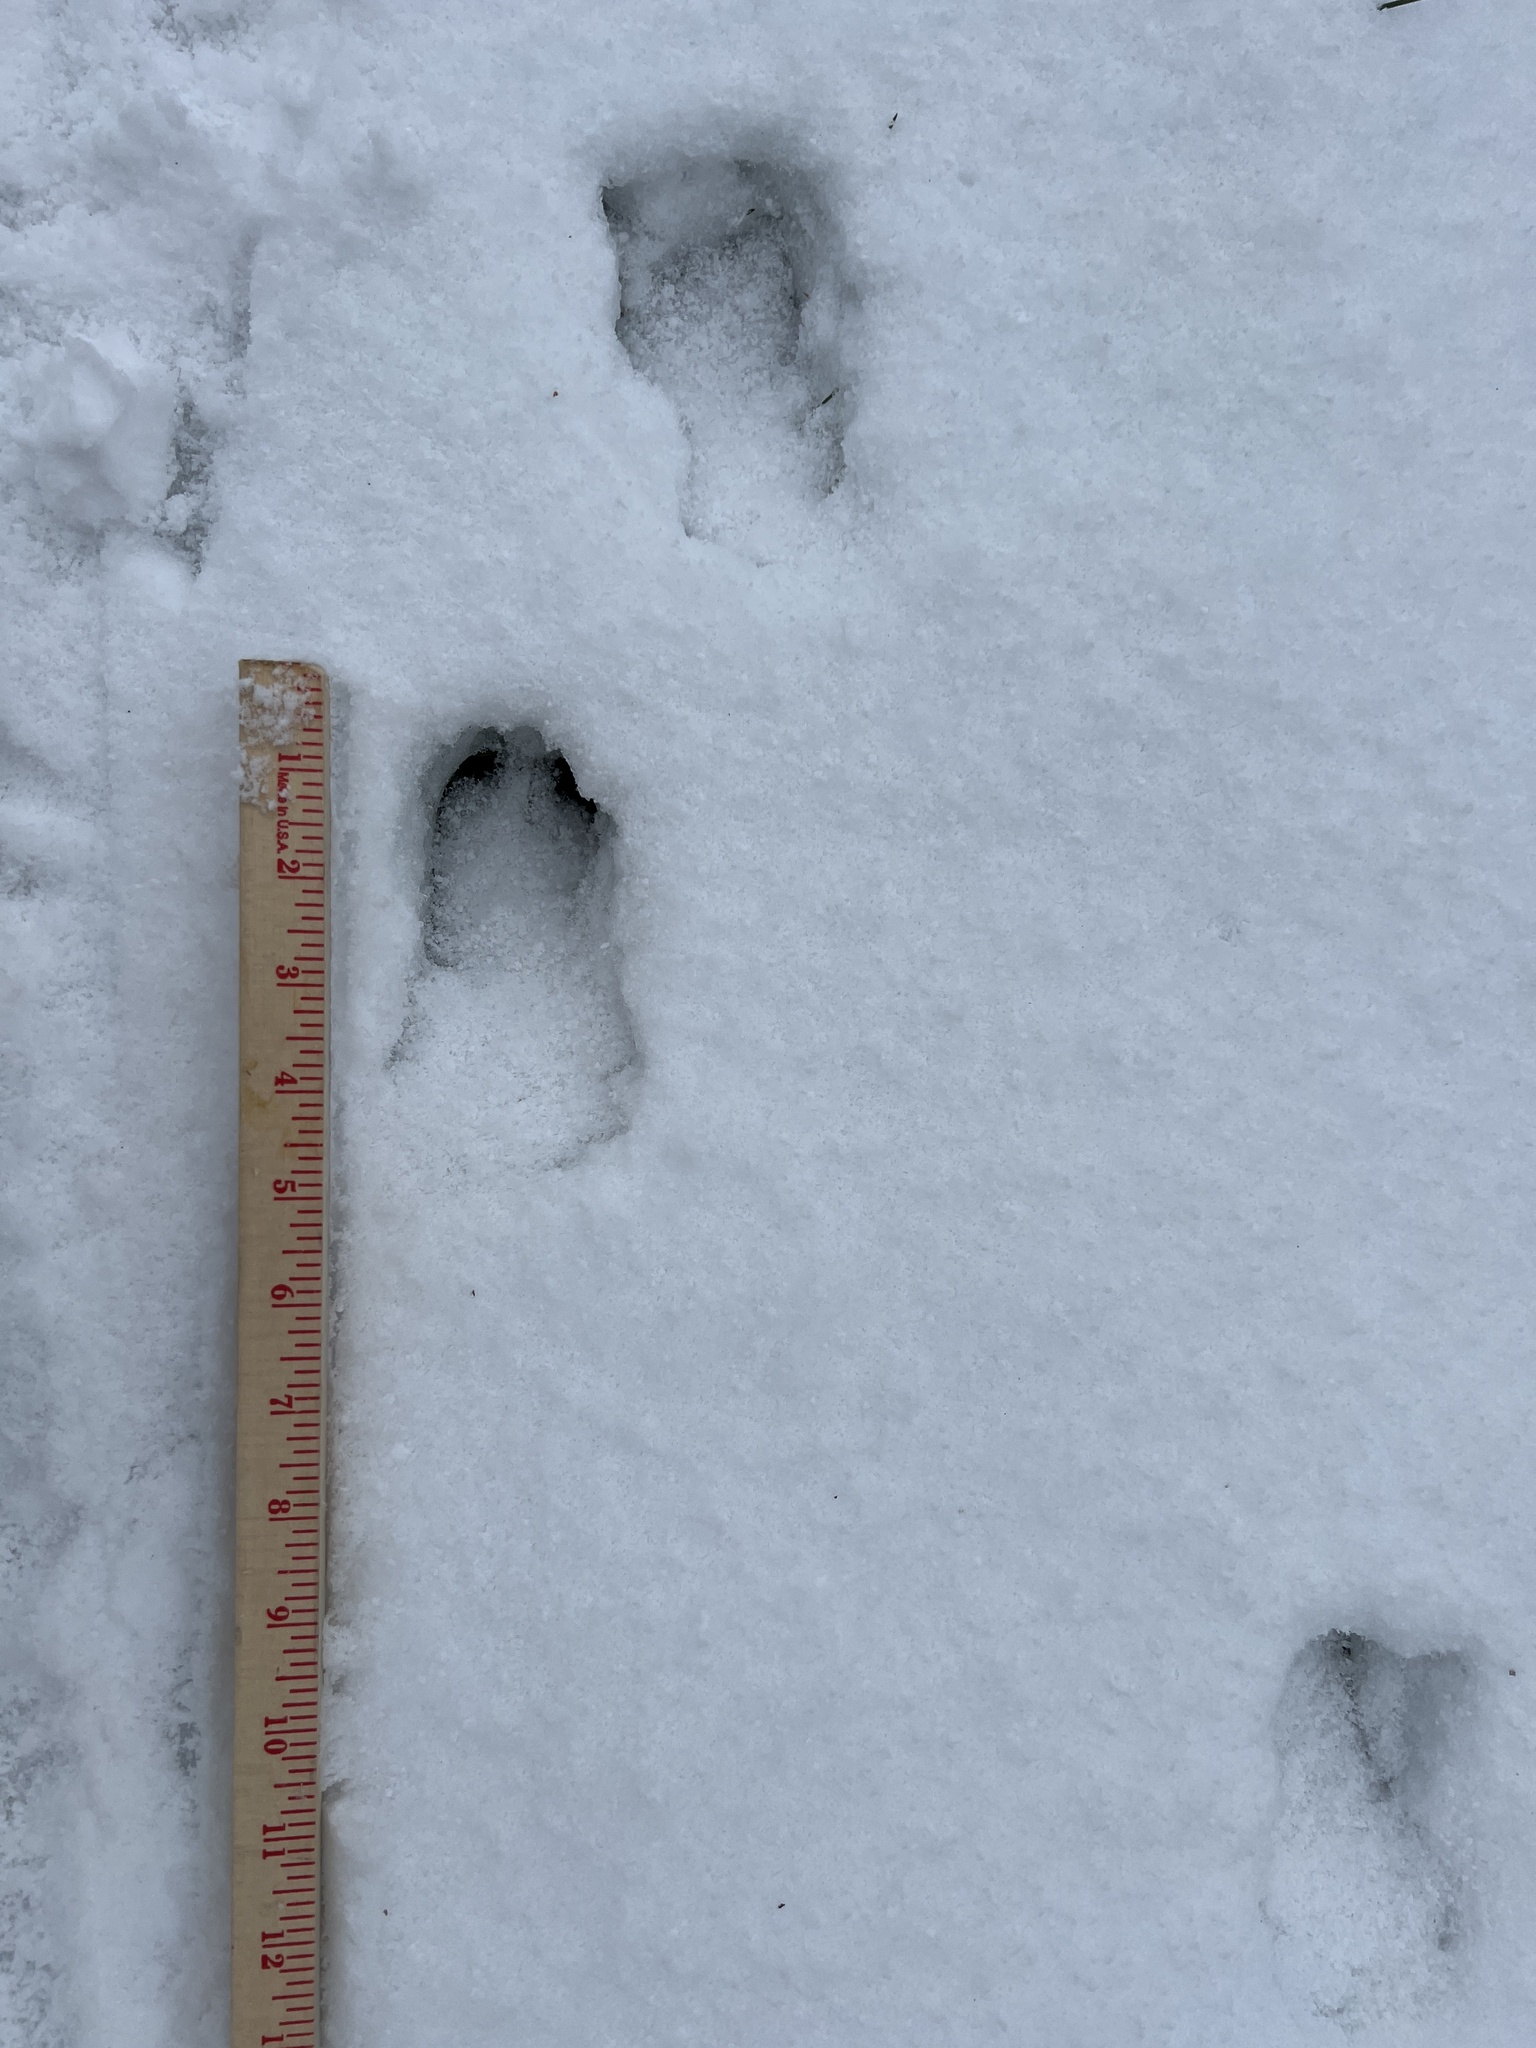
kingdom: Animalia
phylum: Chordata
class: Mammalia
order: Lagomorpha
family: Leporidae
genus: Sylvilagus
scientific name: Sylvilagus floridanus
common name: Eastern cottontail
